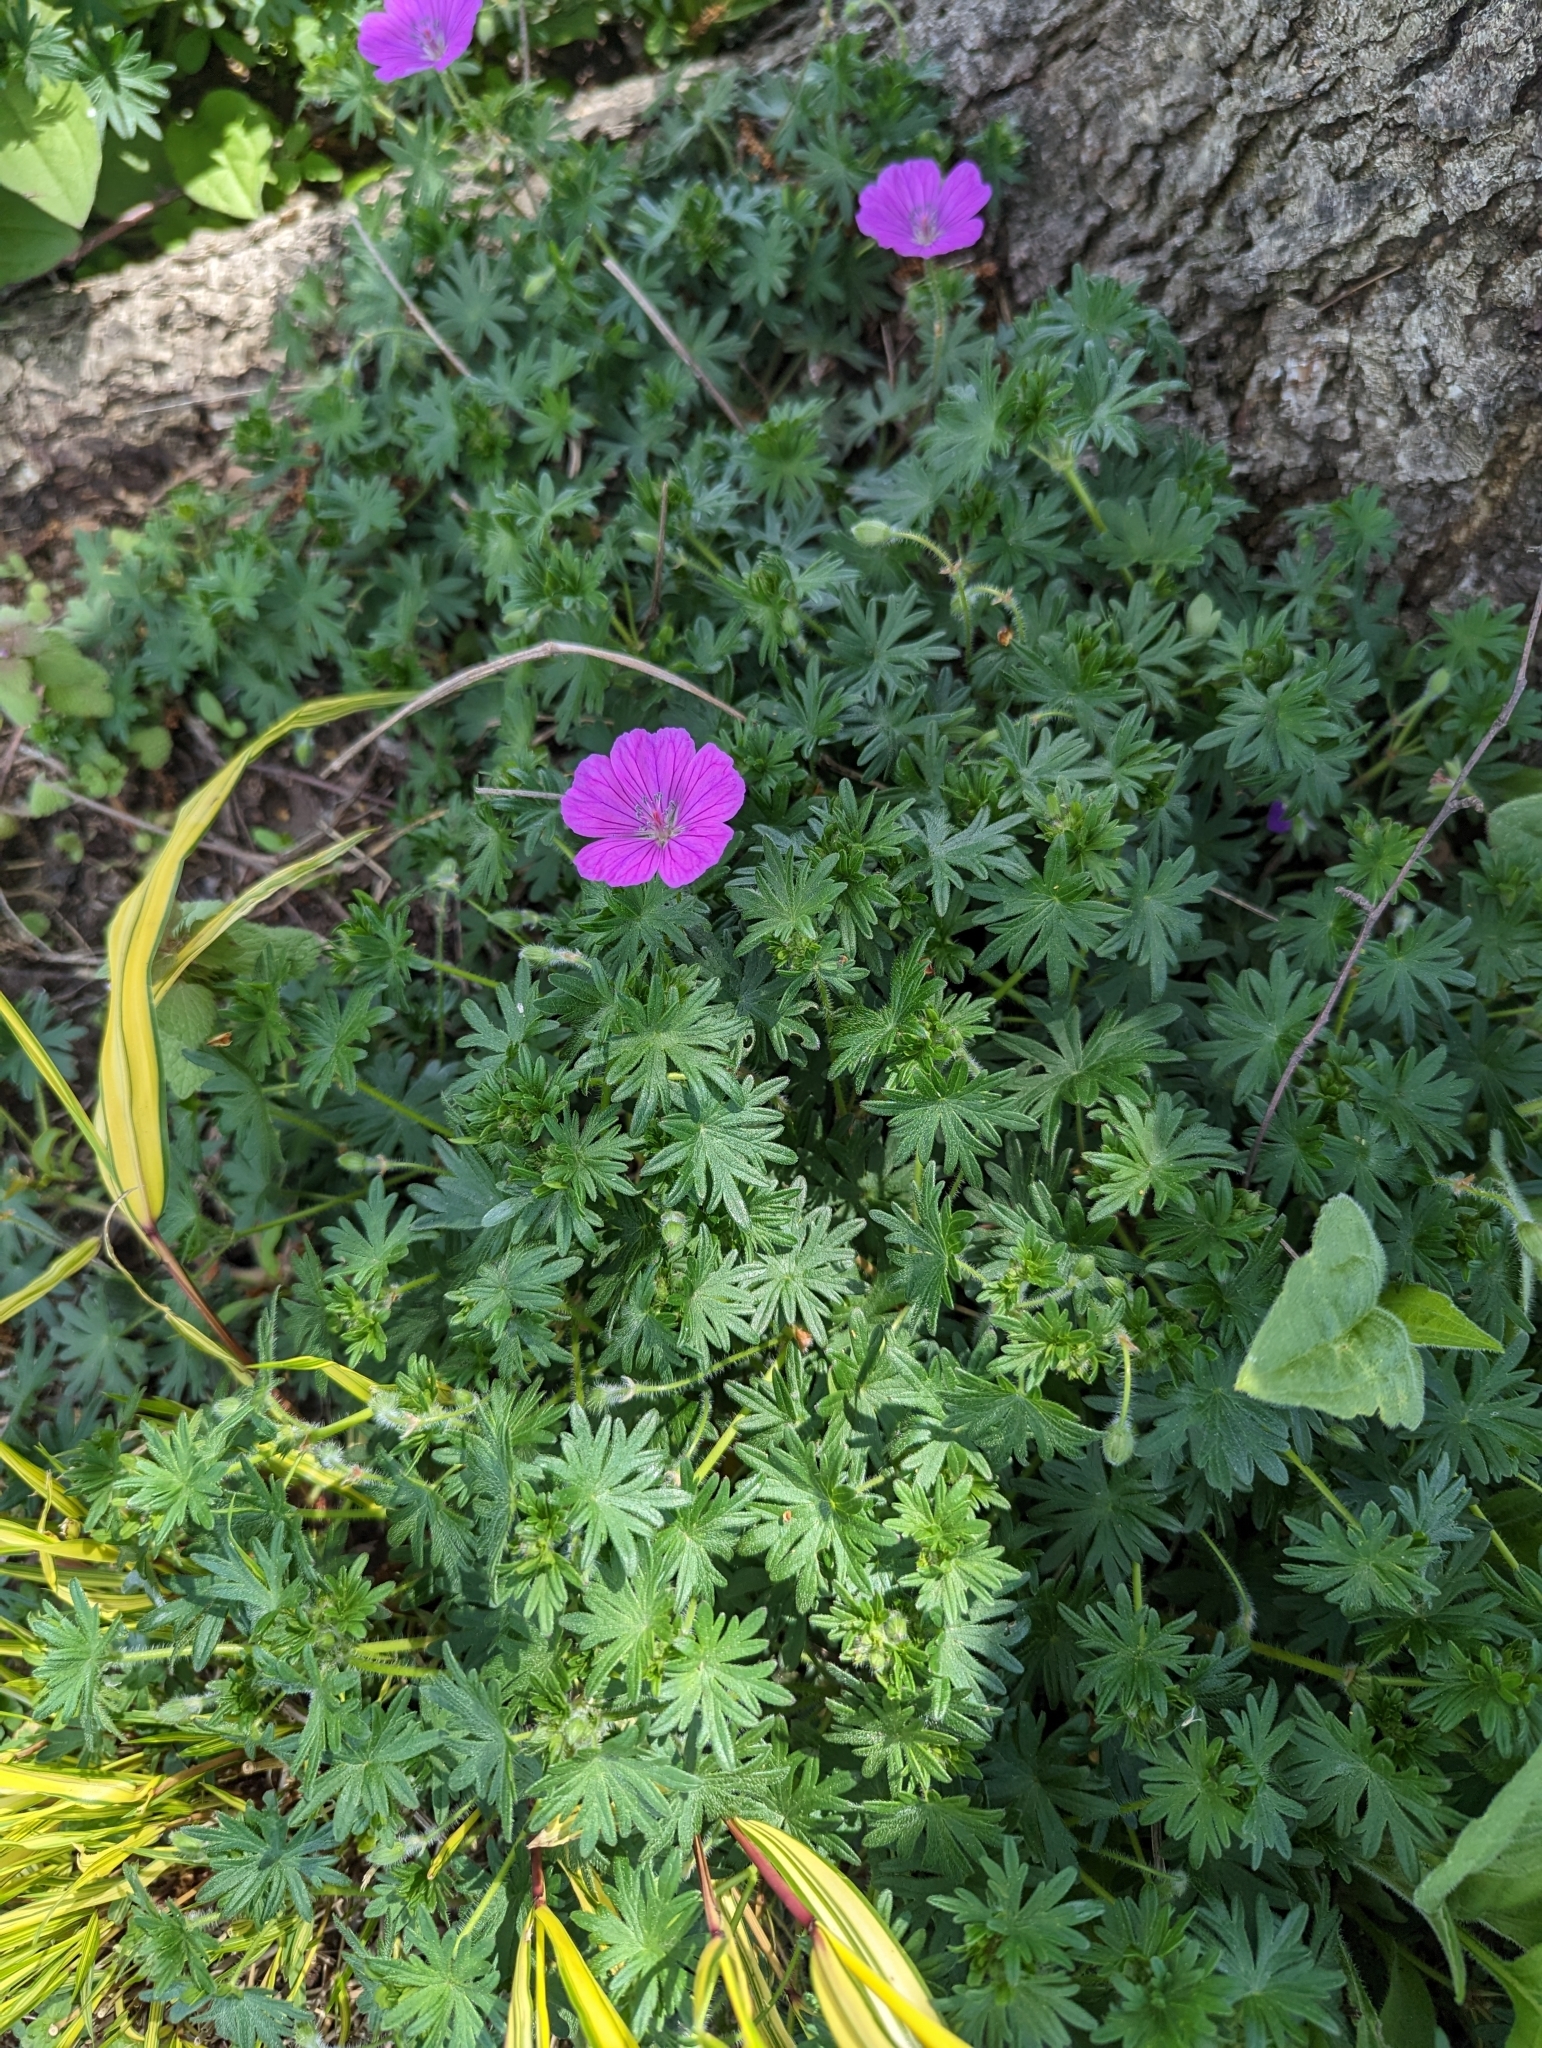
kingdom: Plantae
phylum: Tracheophyta
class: Magnoliopsida
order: Geraniales
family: Geraniaceae
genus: Geranium
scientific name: Geranium sanguineum
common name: Bloody crane's-bill
